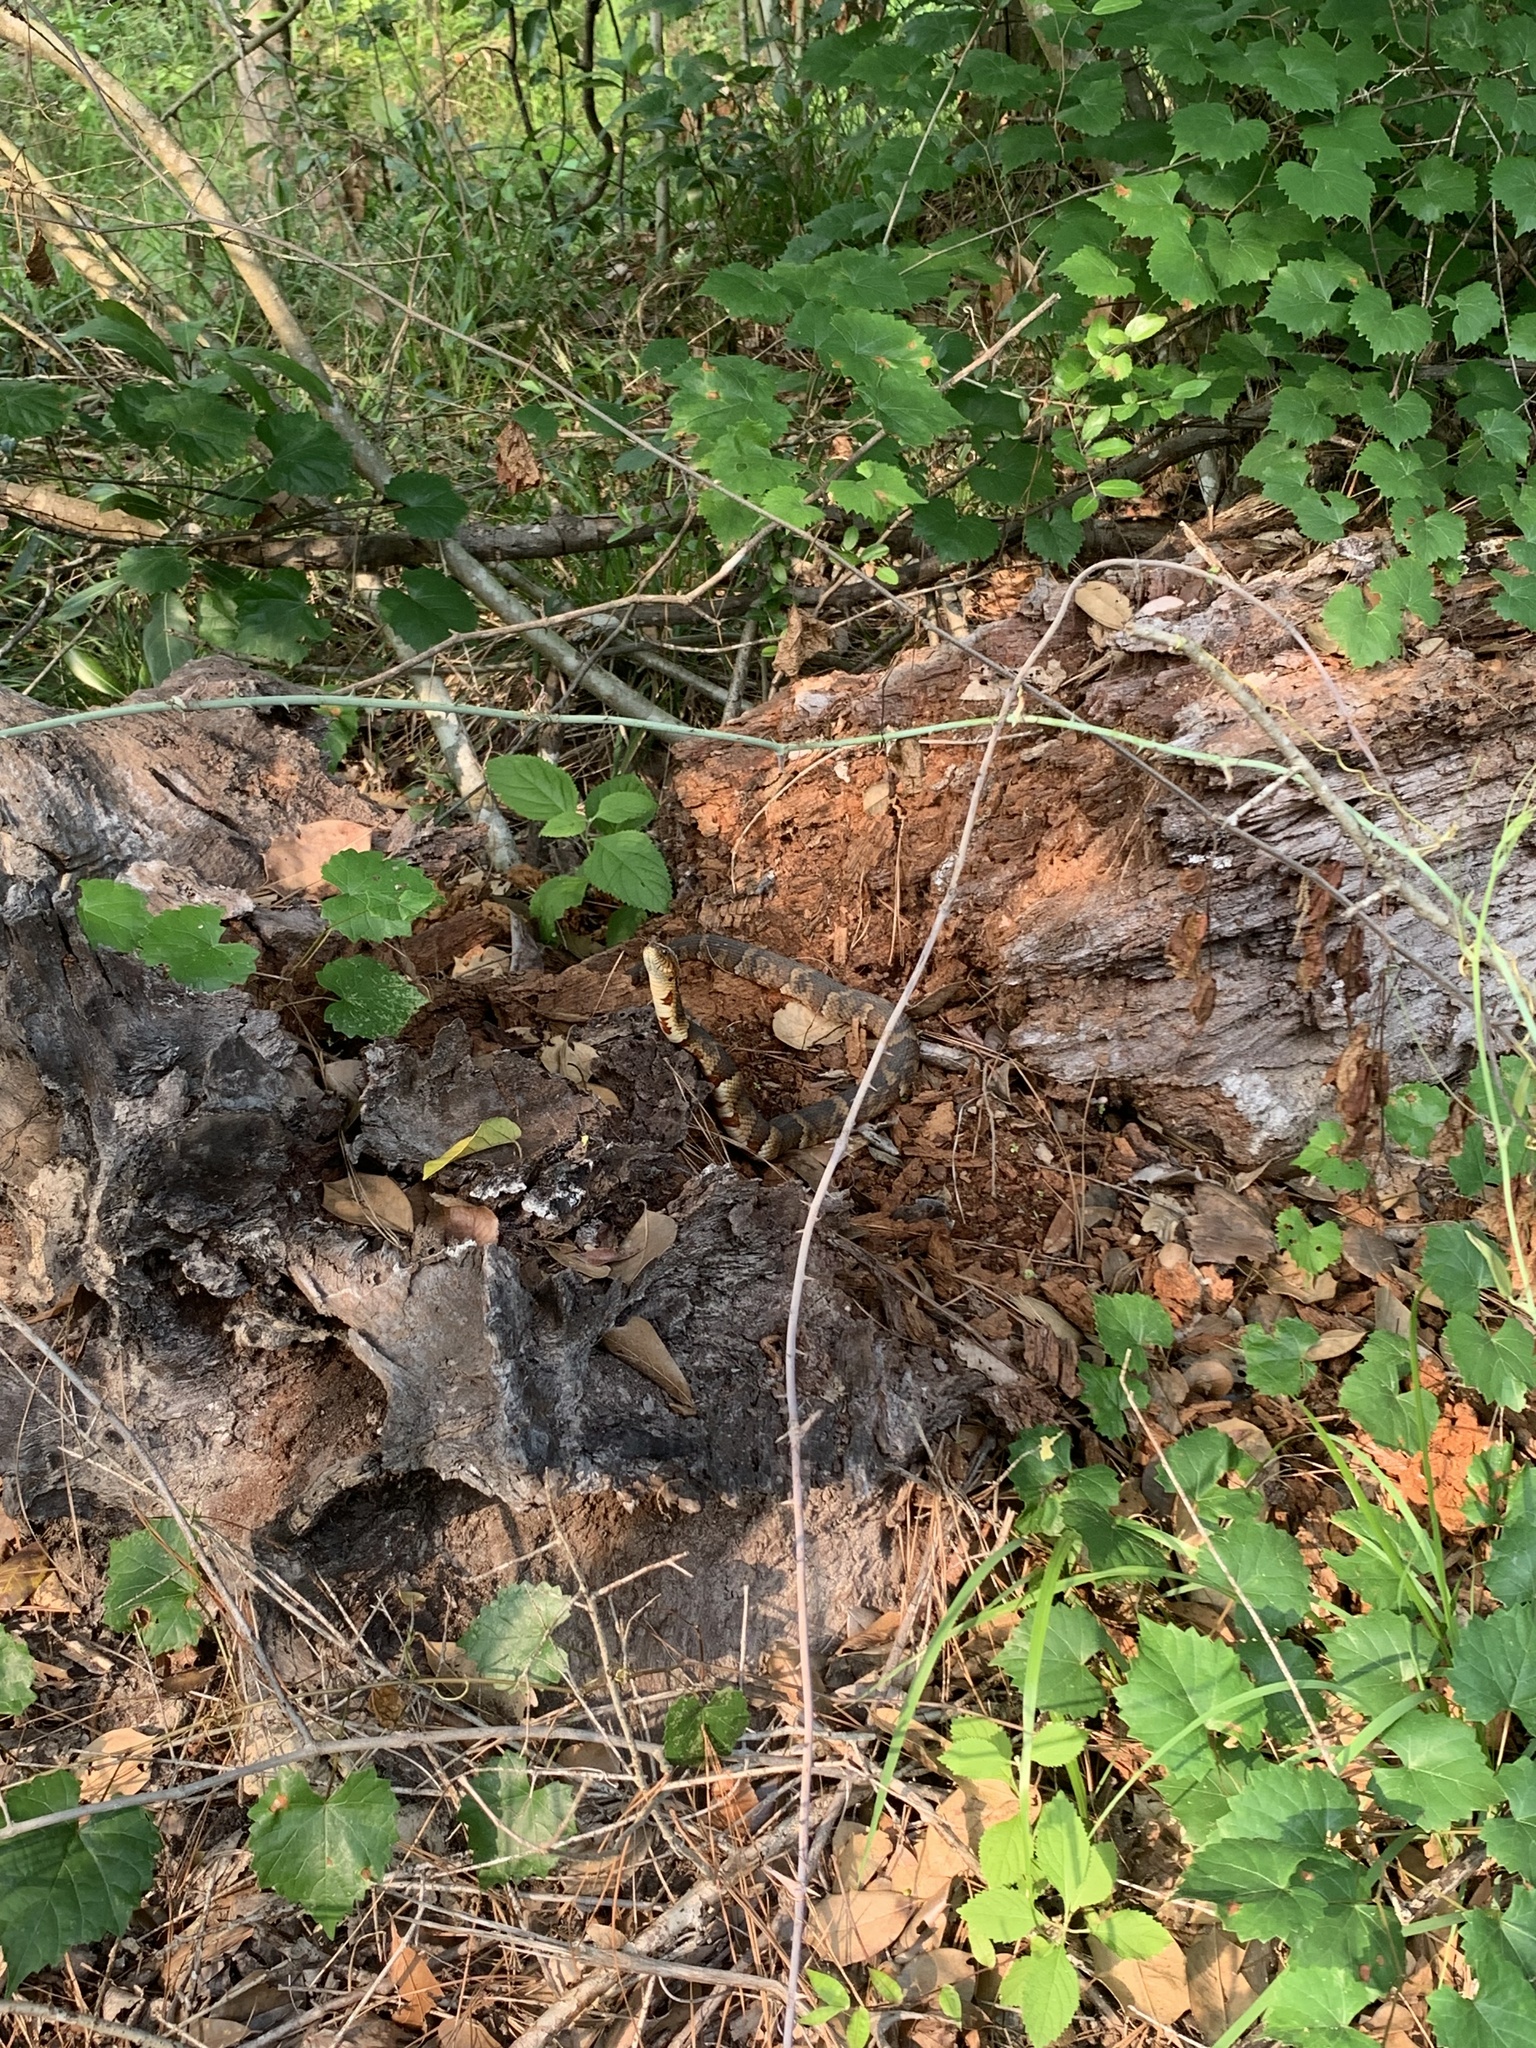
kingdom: Animalia
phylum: Chordata
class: Squamata
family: Colubridae
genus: Nerodia
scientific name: Nerodia fasciata
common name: Southern water snake
